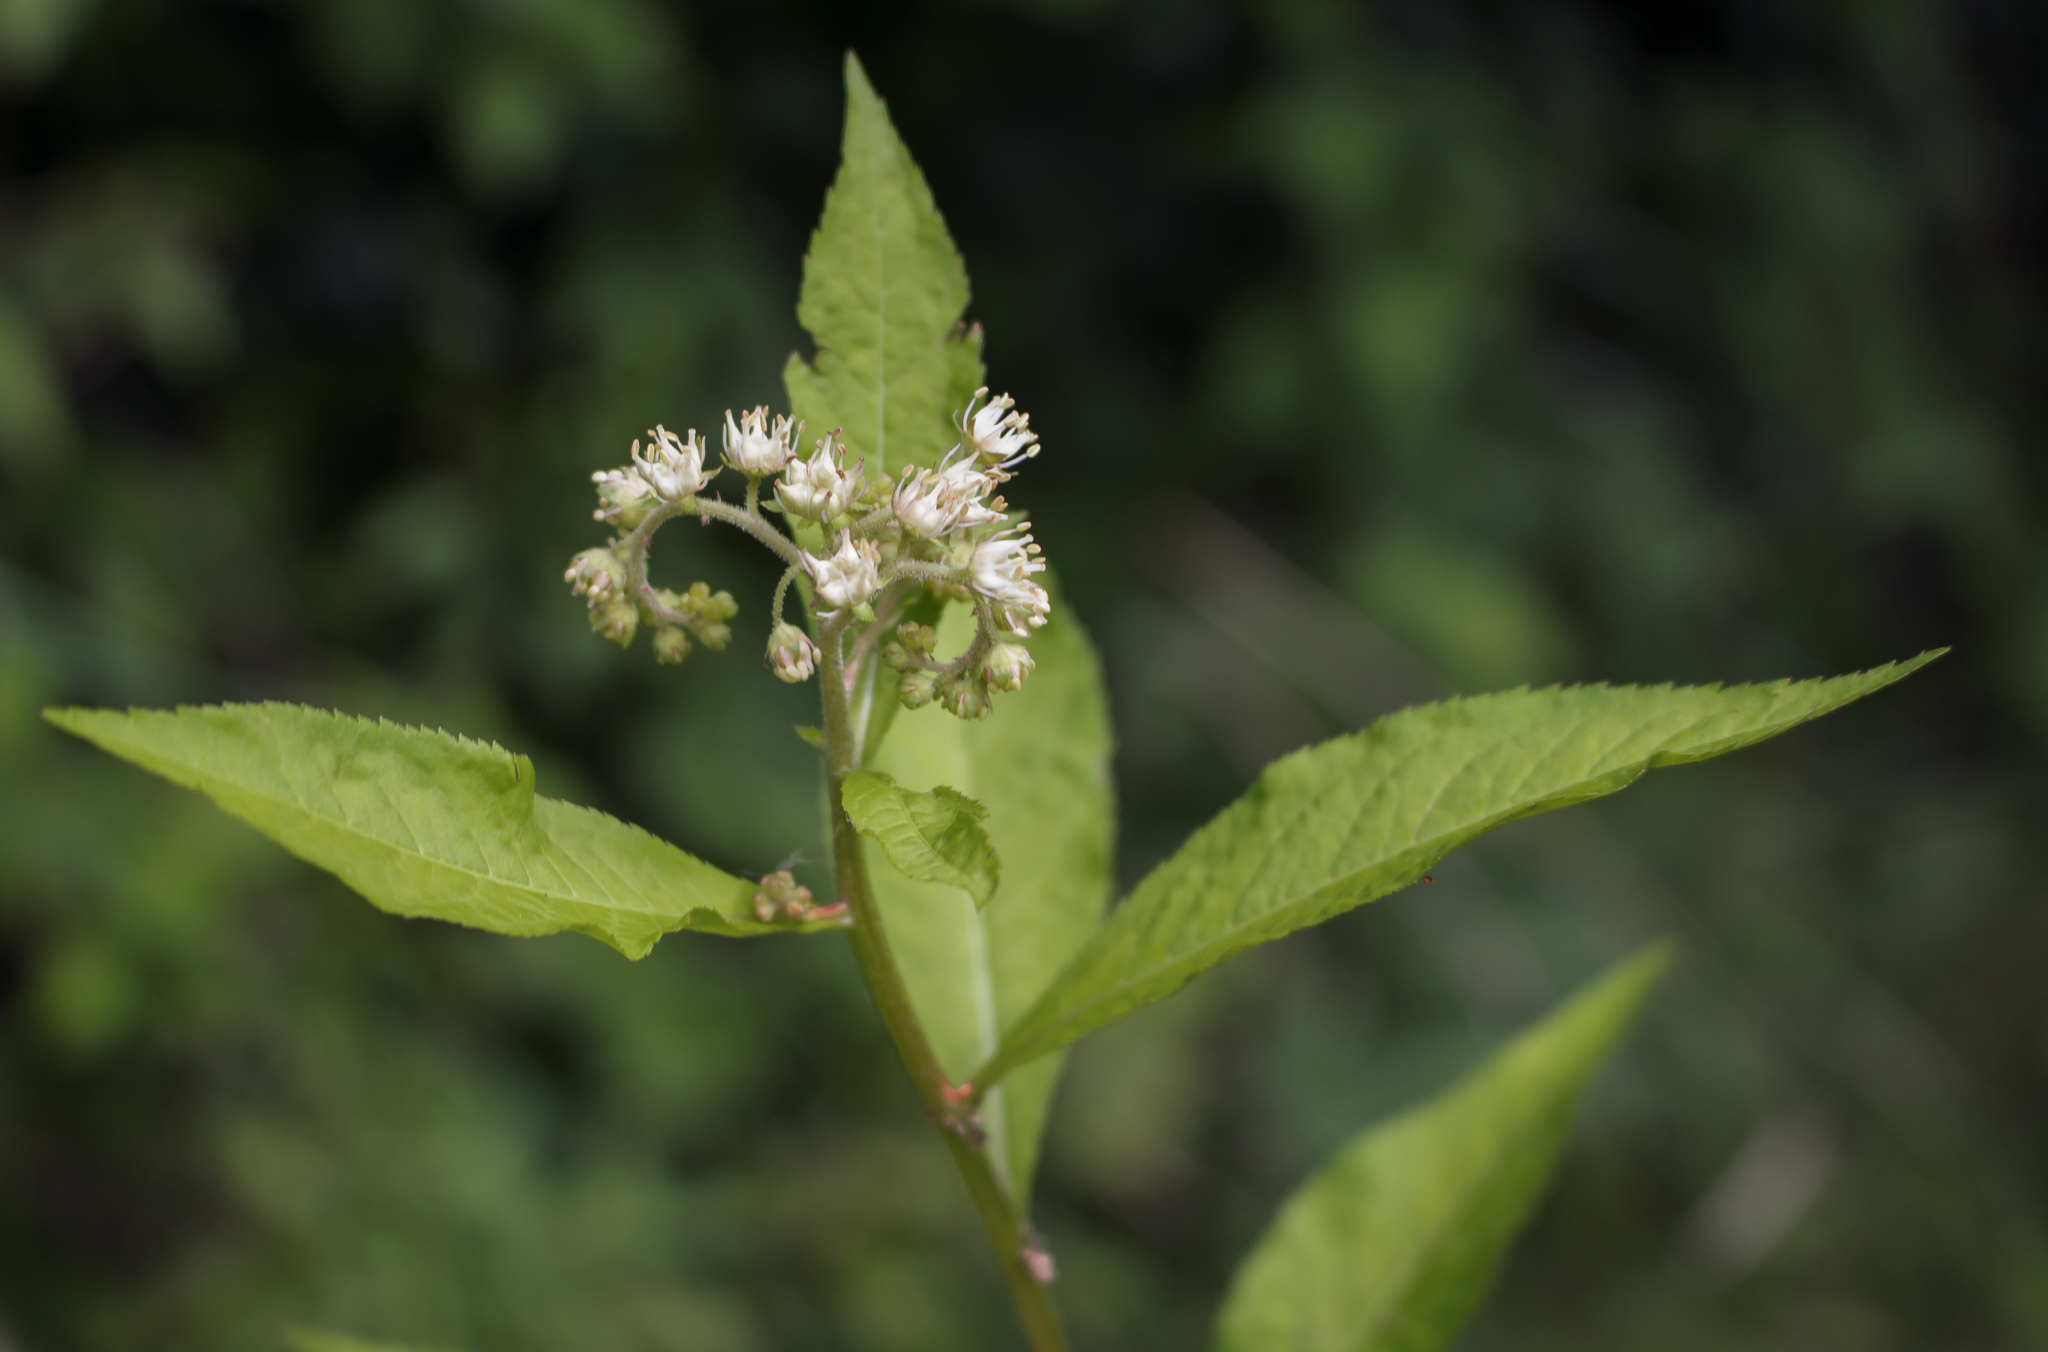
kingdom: Plantae
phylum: Tracheophyta
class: Magnoliopsida
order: Saxifragales
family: Penthoraceae
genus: Penthorum
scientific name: Penthorum sedoides
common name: Ditch stonecrop
